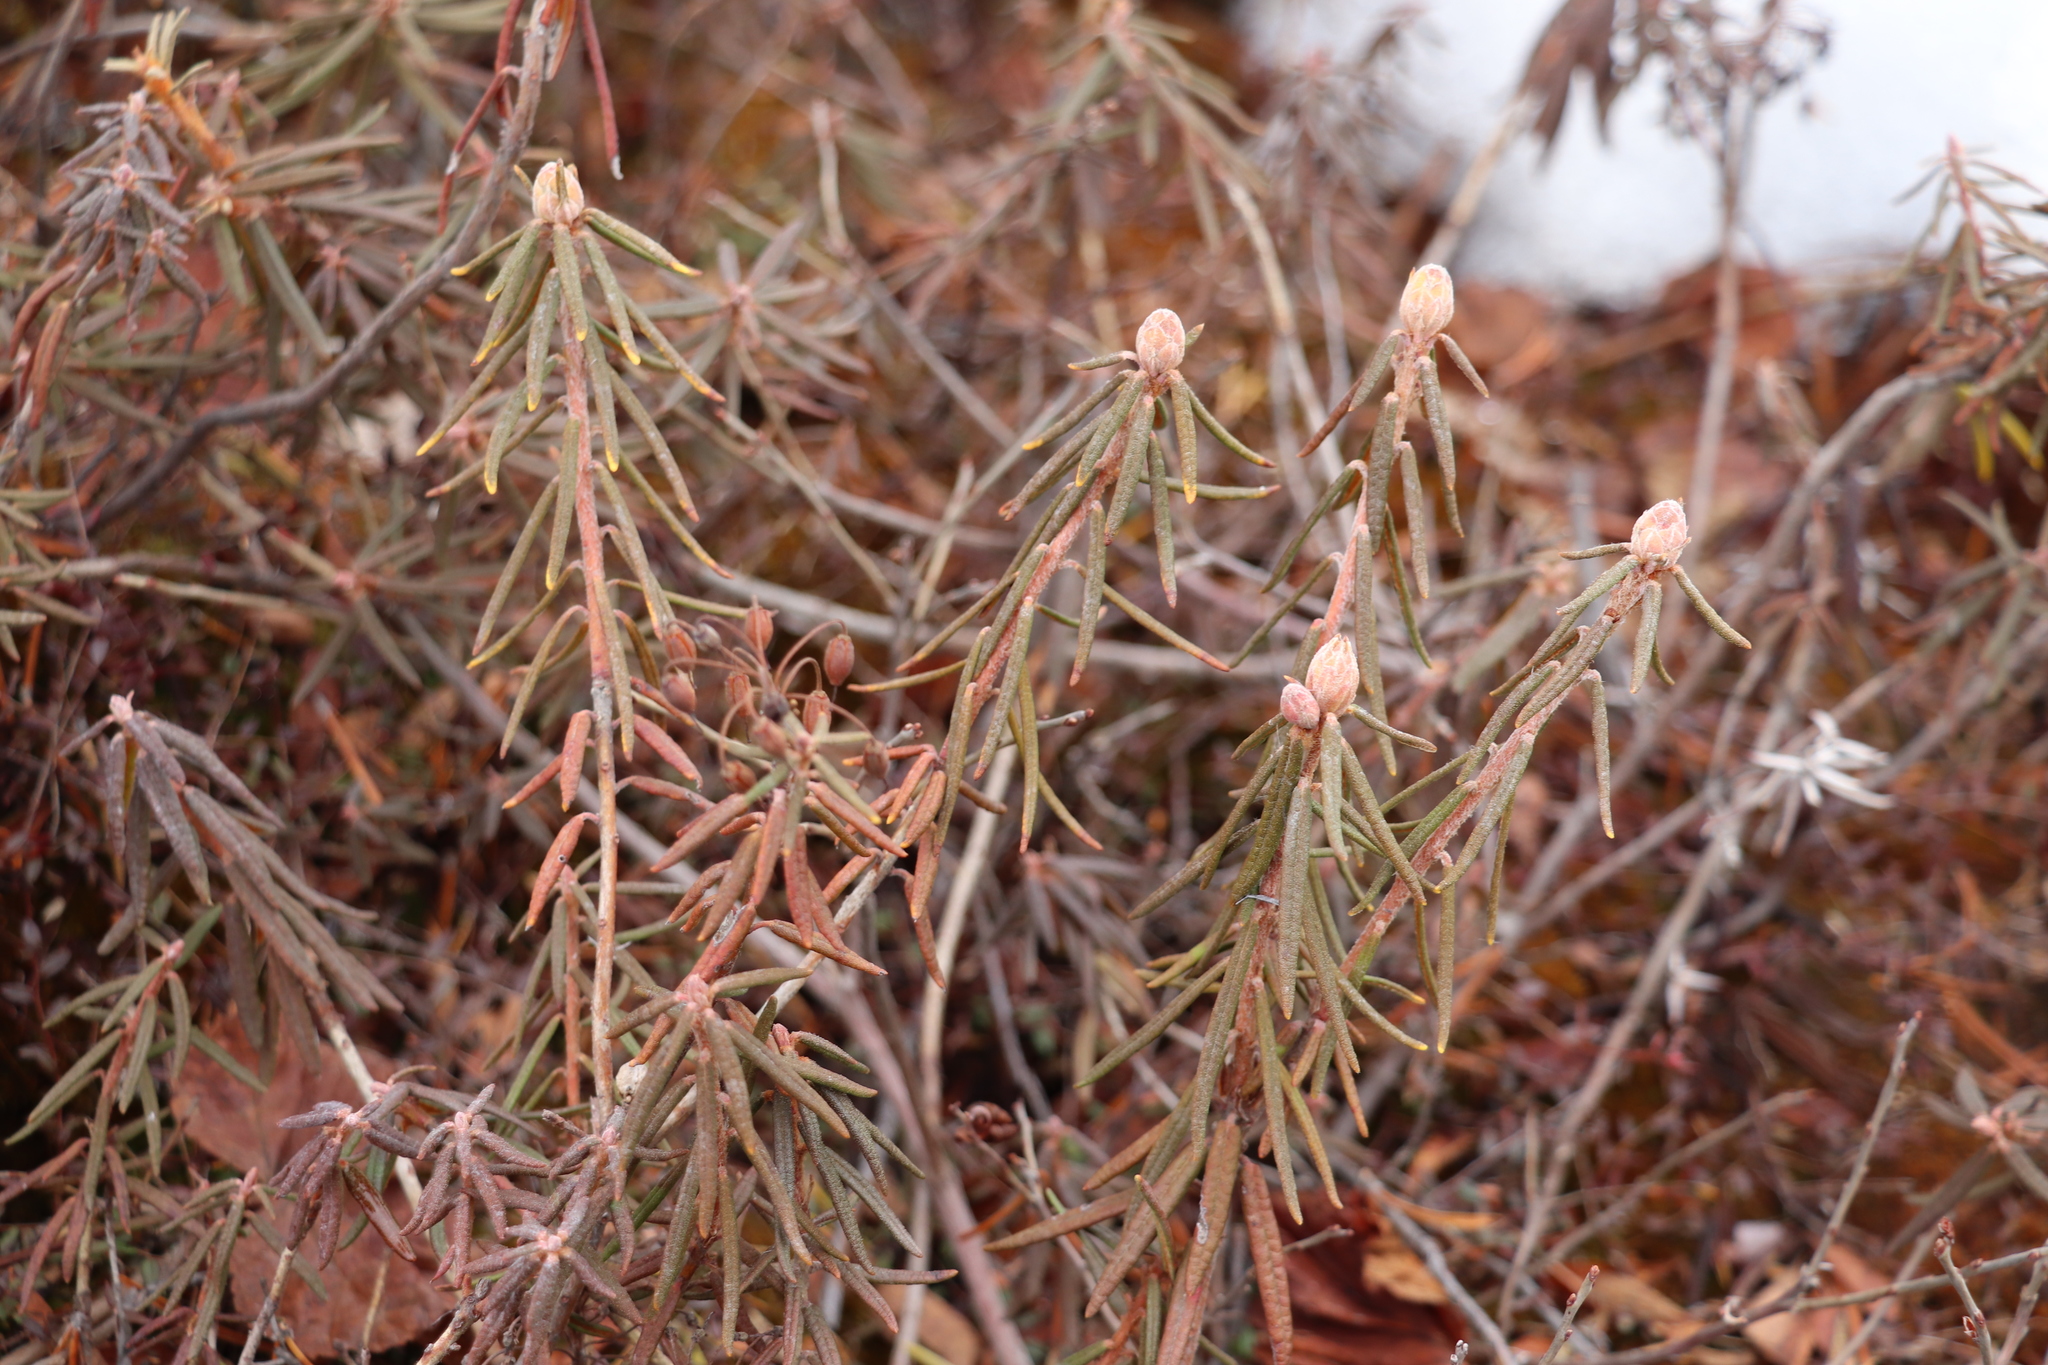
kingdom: Plantae
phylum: Tracheophyta
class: Magnoliopsida
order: Ericales
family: Ericaceae
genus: Rhododendron
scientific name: Rhododendron tomentosum
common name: Marsh labrador tea
